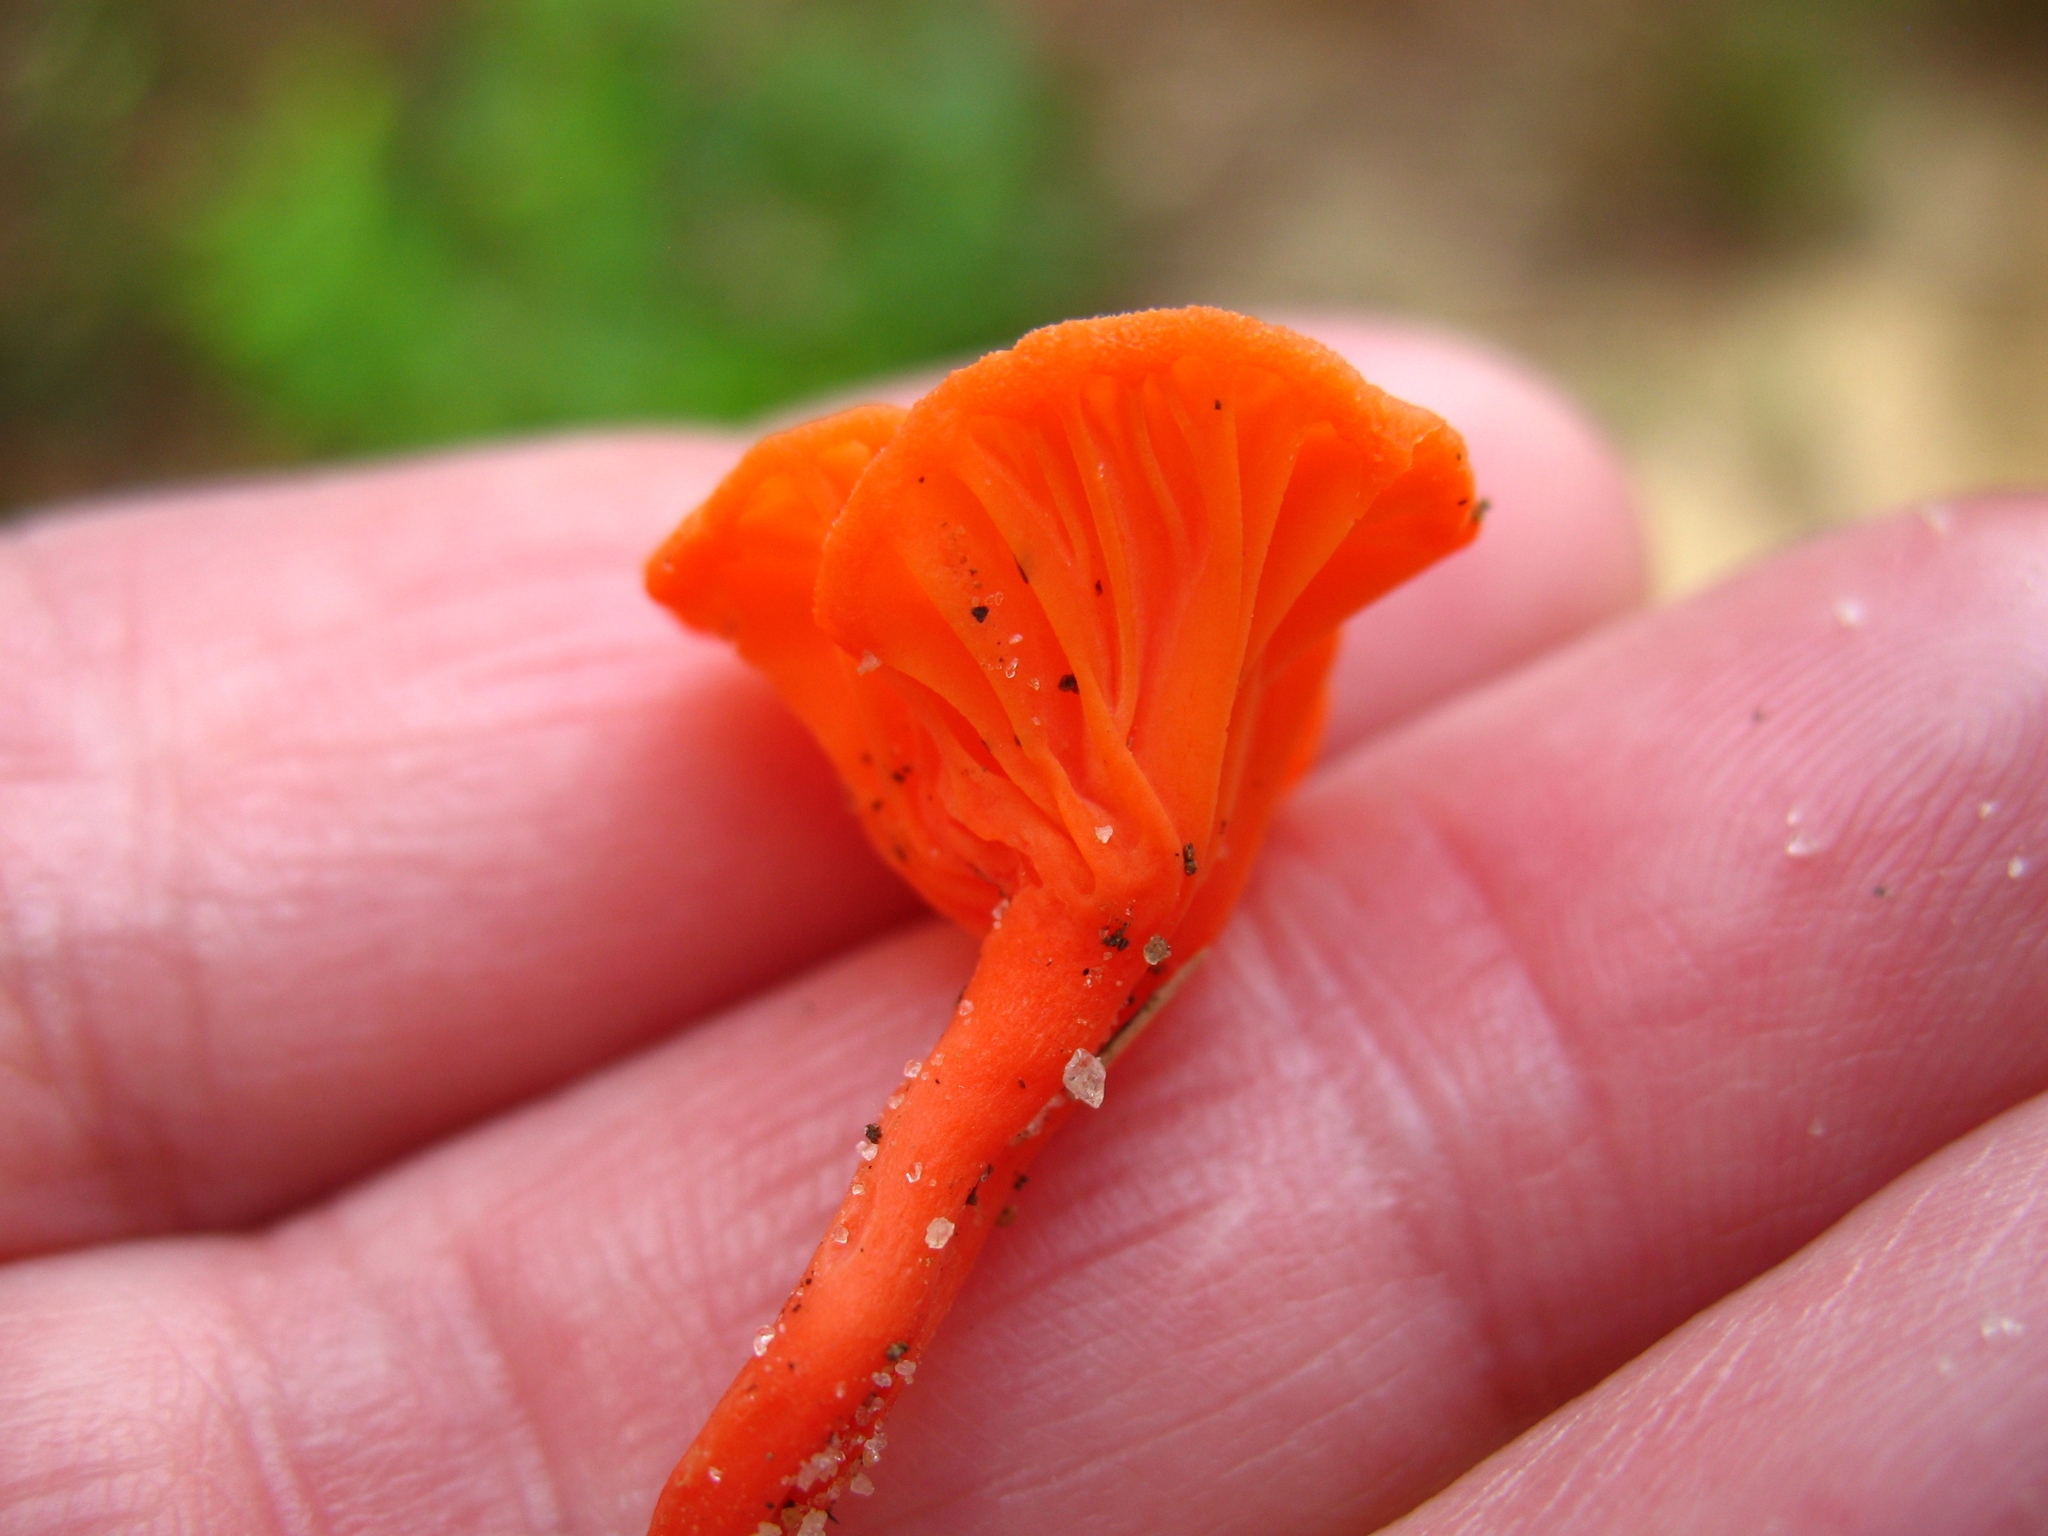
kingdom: Fungi
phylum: Basidiomycota
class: Agaricomycetes
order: Cantharellales
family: Hydnaceae
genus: Cantharellus
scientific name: Cantharellus cinnabarinus
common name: Cinnabar chanterelle
